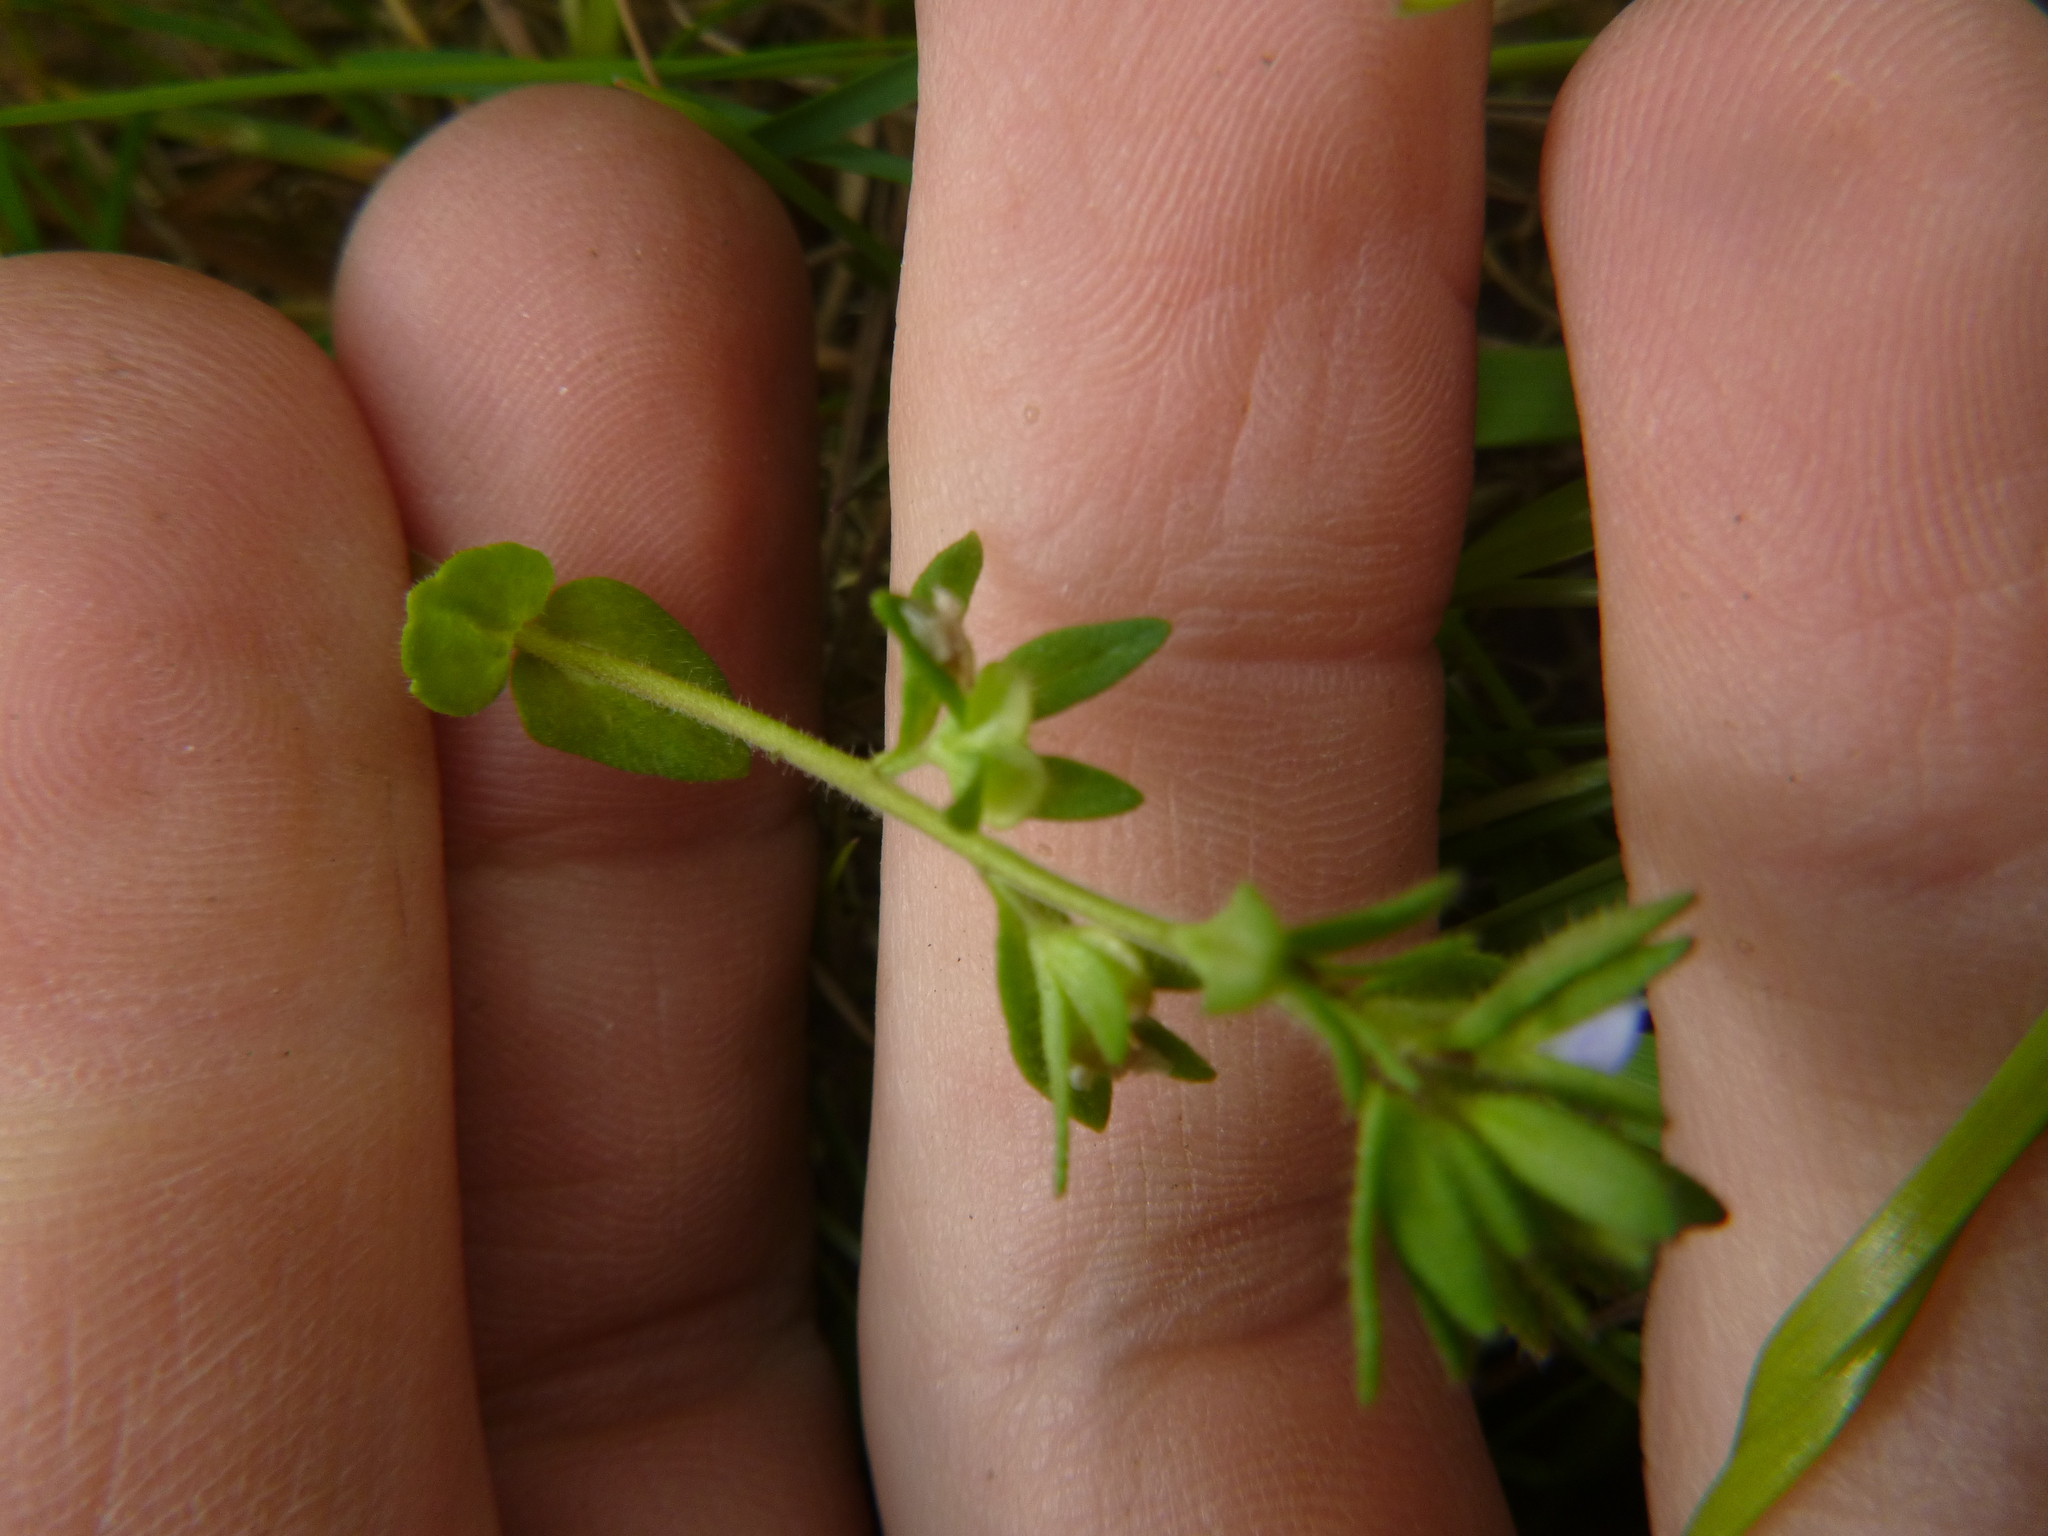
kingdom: Plantae
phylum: Tracheophyta
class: Magnoliopsida
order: Lamiales
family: Plantaginaceae
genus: Veronica
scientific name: Veronica arvensis
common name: Corn speedwell
